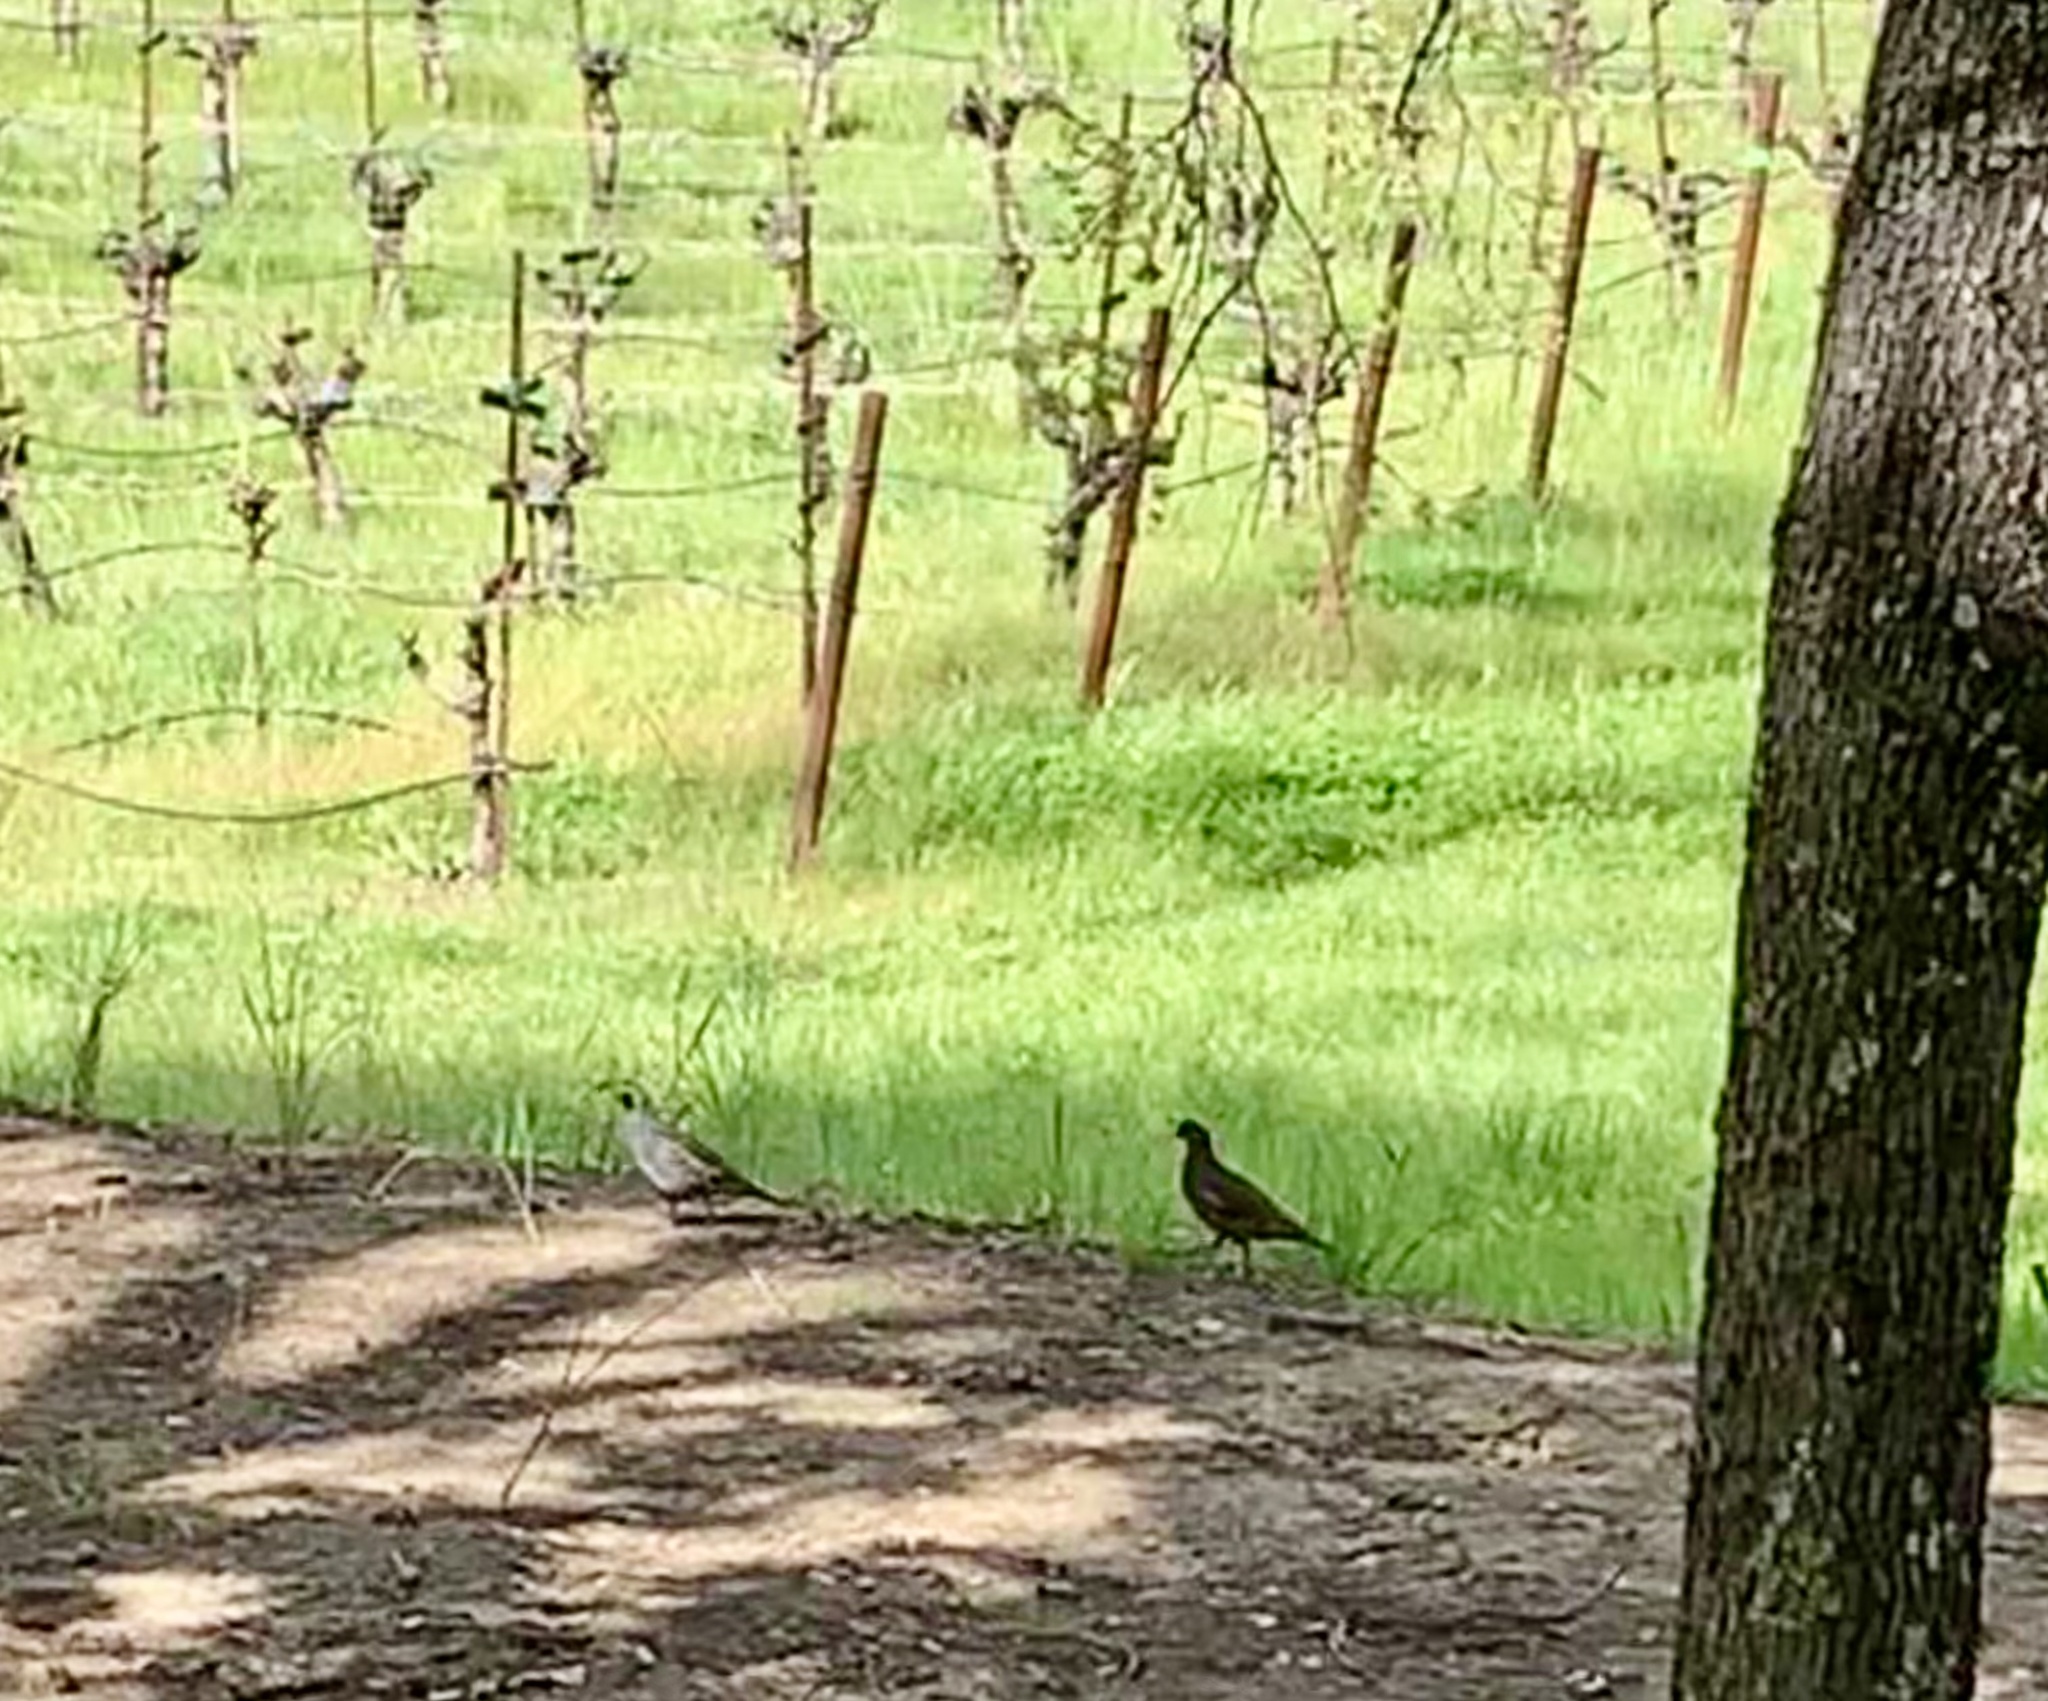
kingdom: Animalia
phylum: Chordata
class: Aves
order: Galliformes
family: Odontophoridae
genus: Callipepla
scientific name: Callipepla californica
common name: California quail
